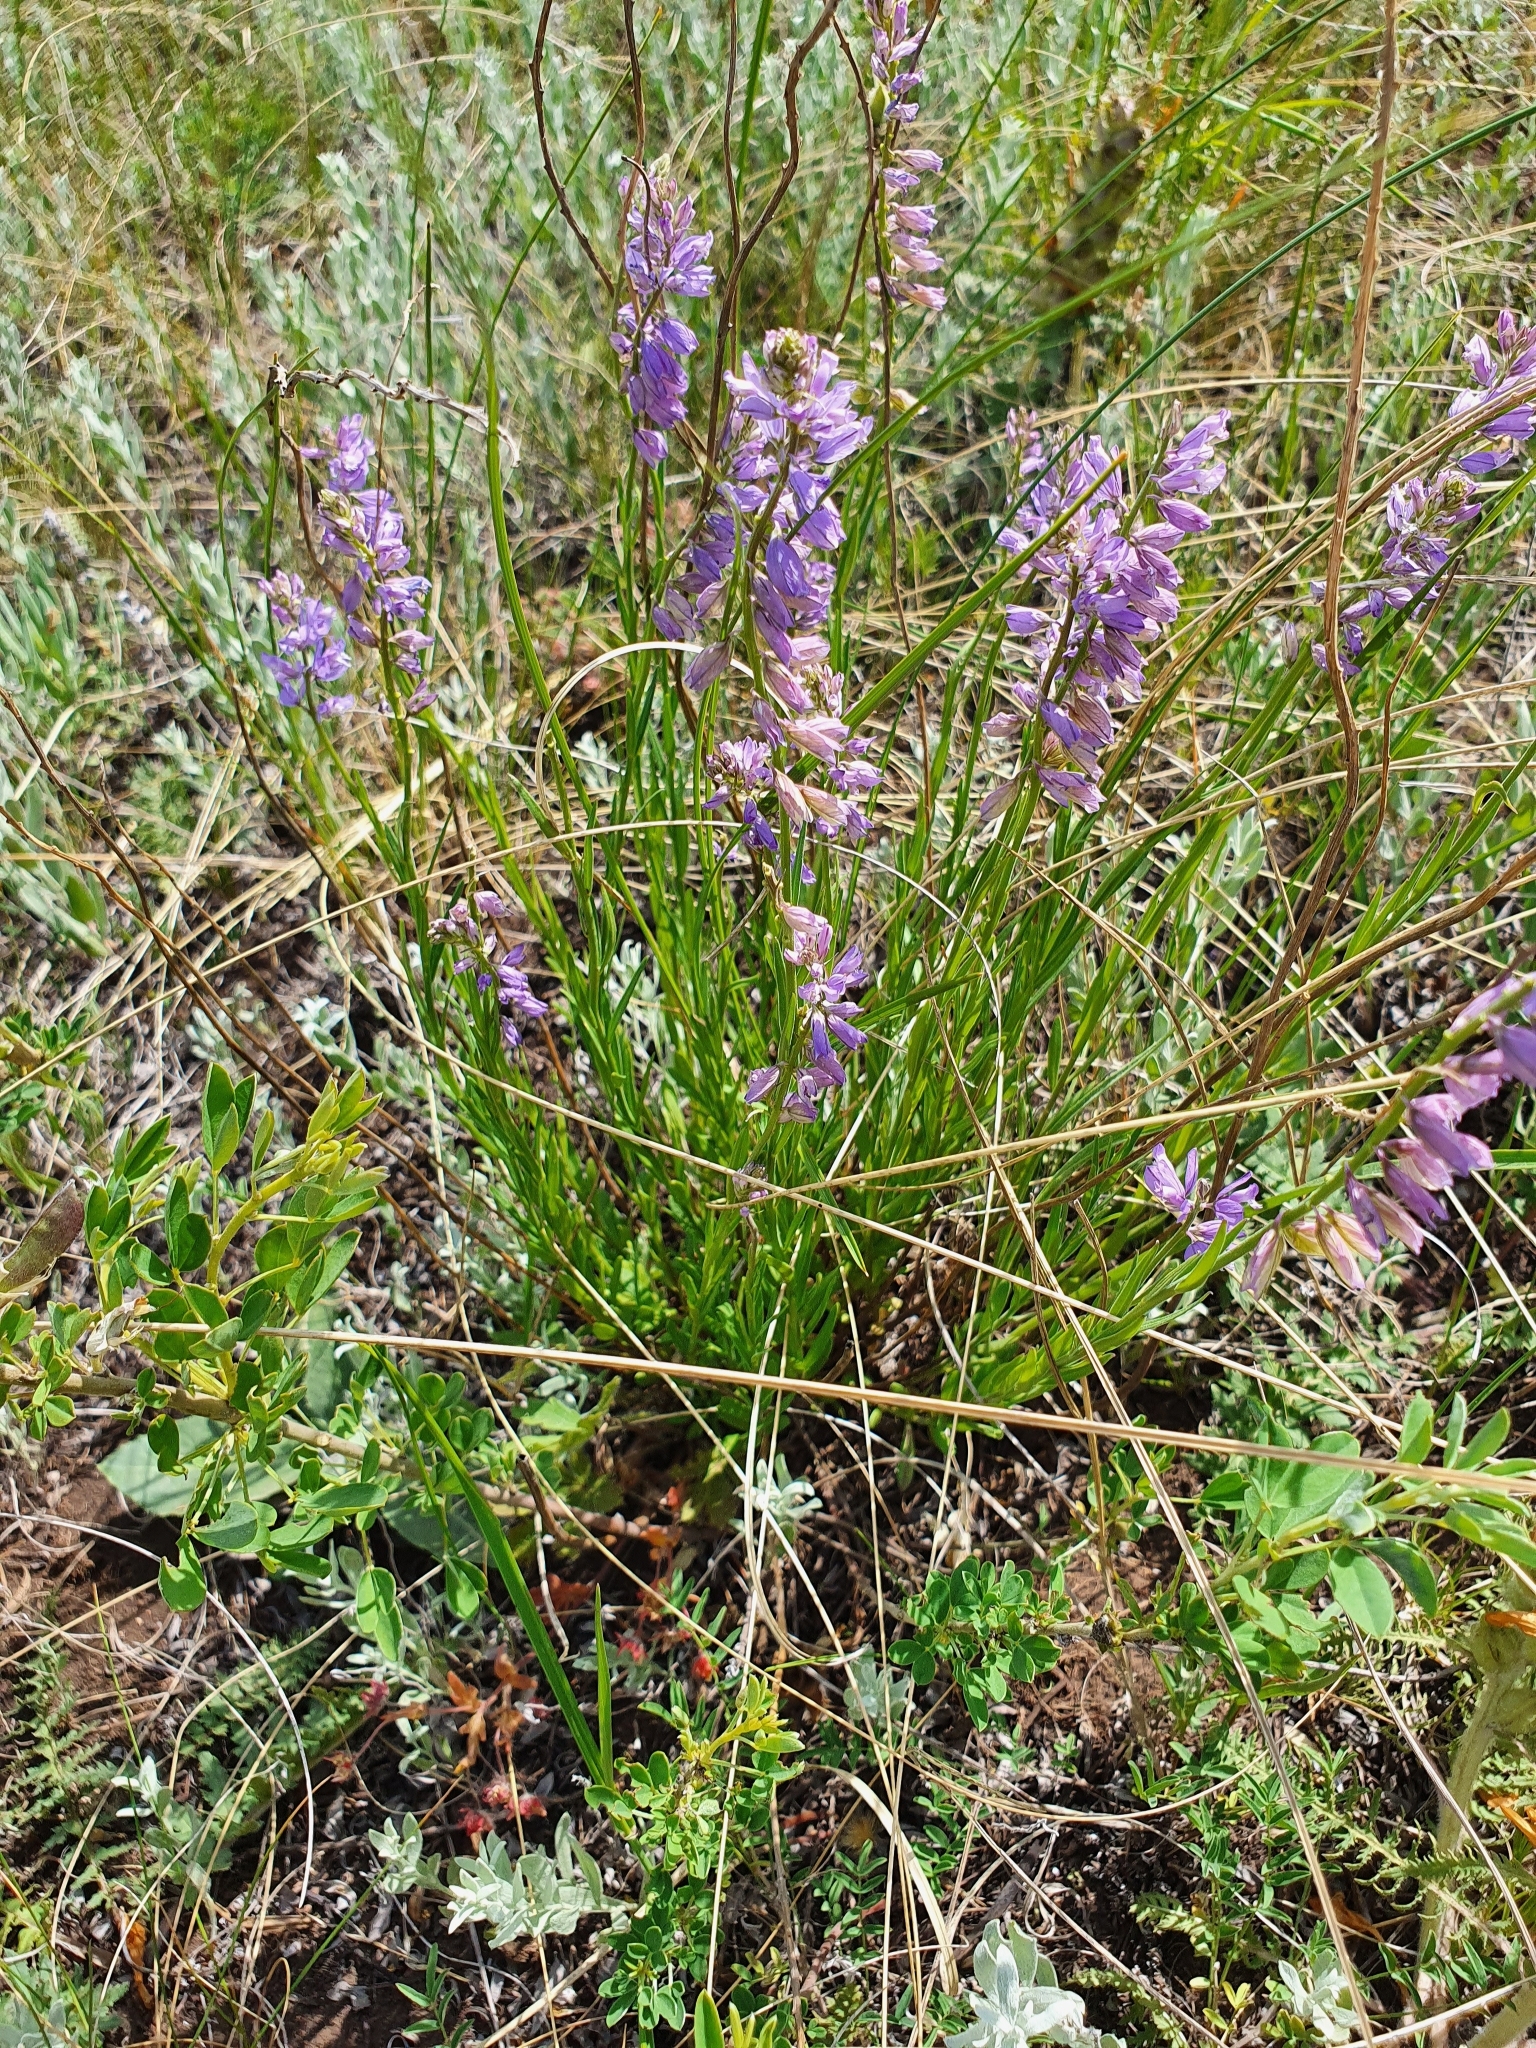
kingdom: Plantae
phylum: Tracheophyta
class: Magnoliopsida
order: Fabales
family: Polygalaceae
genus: Polygala
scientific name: Polygala comosa
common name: Tufted milkwort
